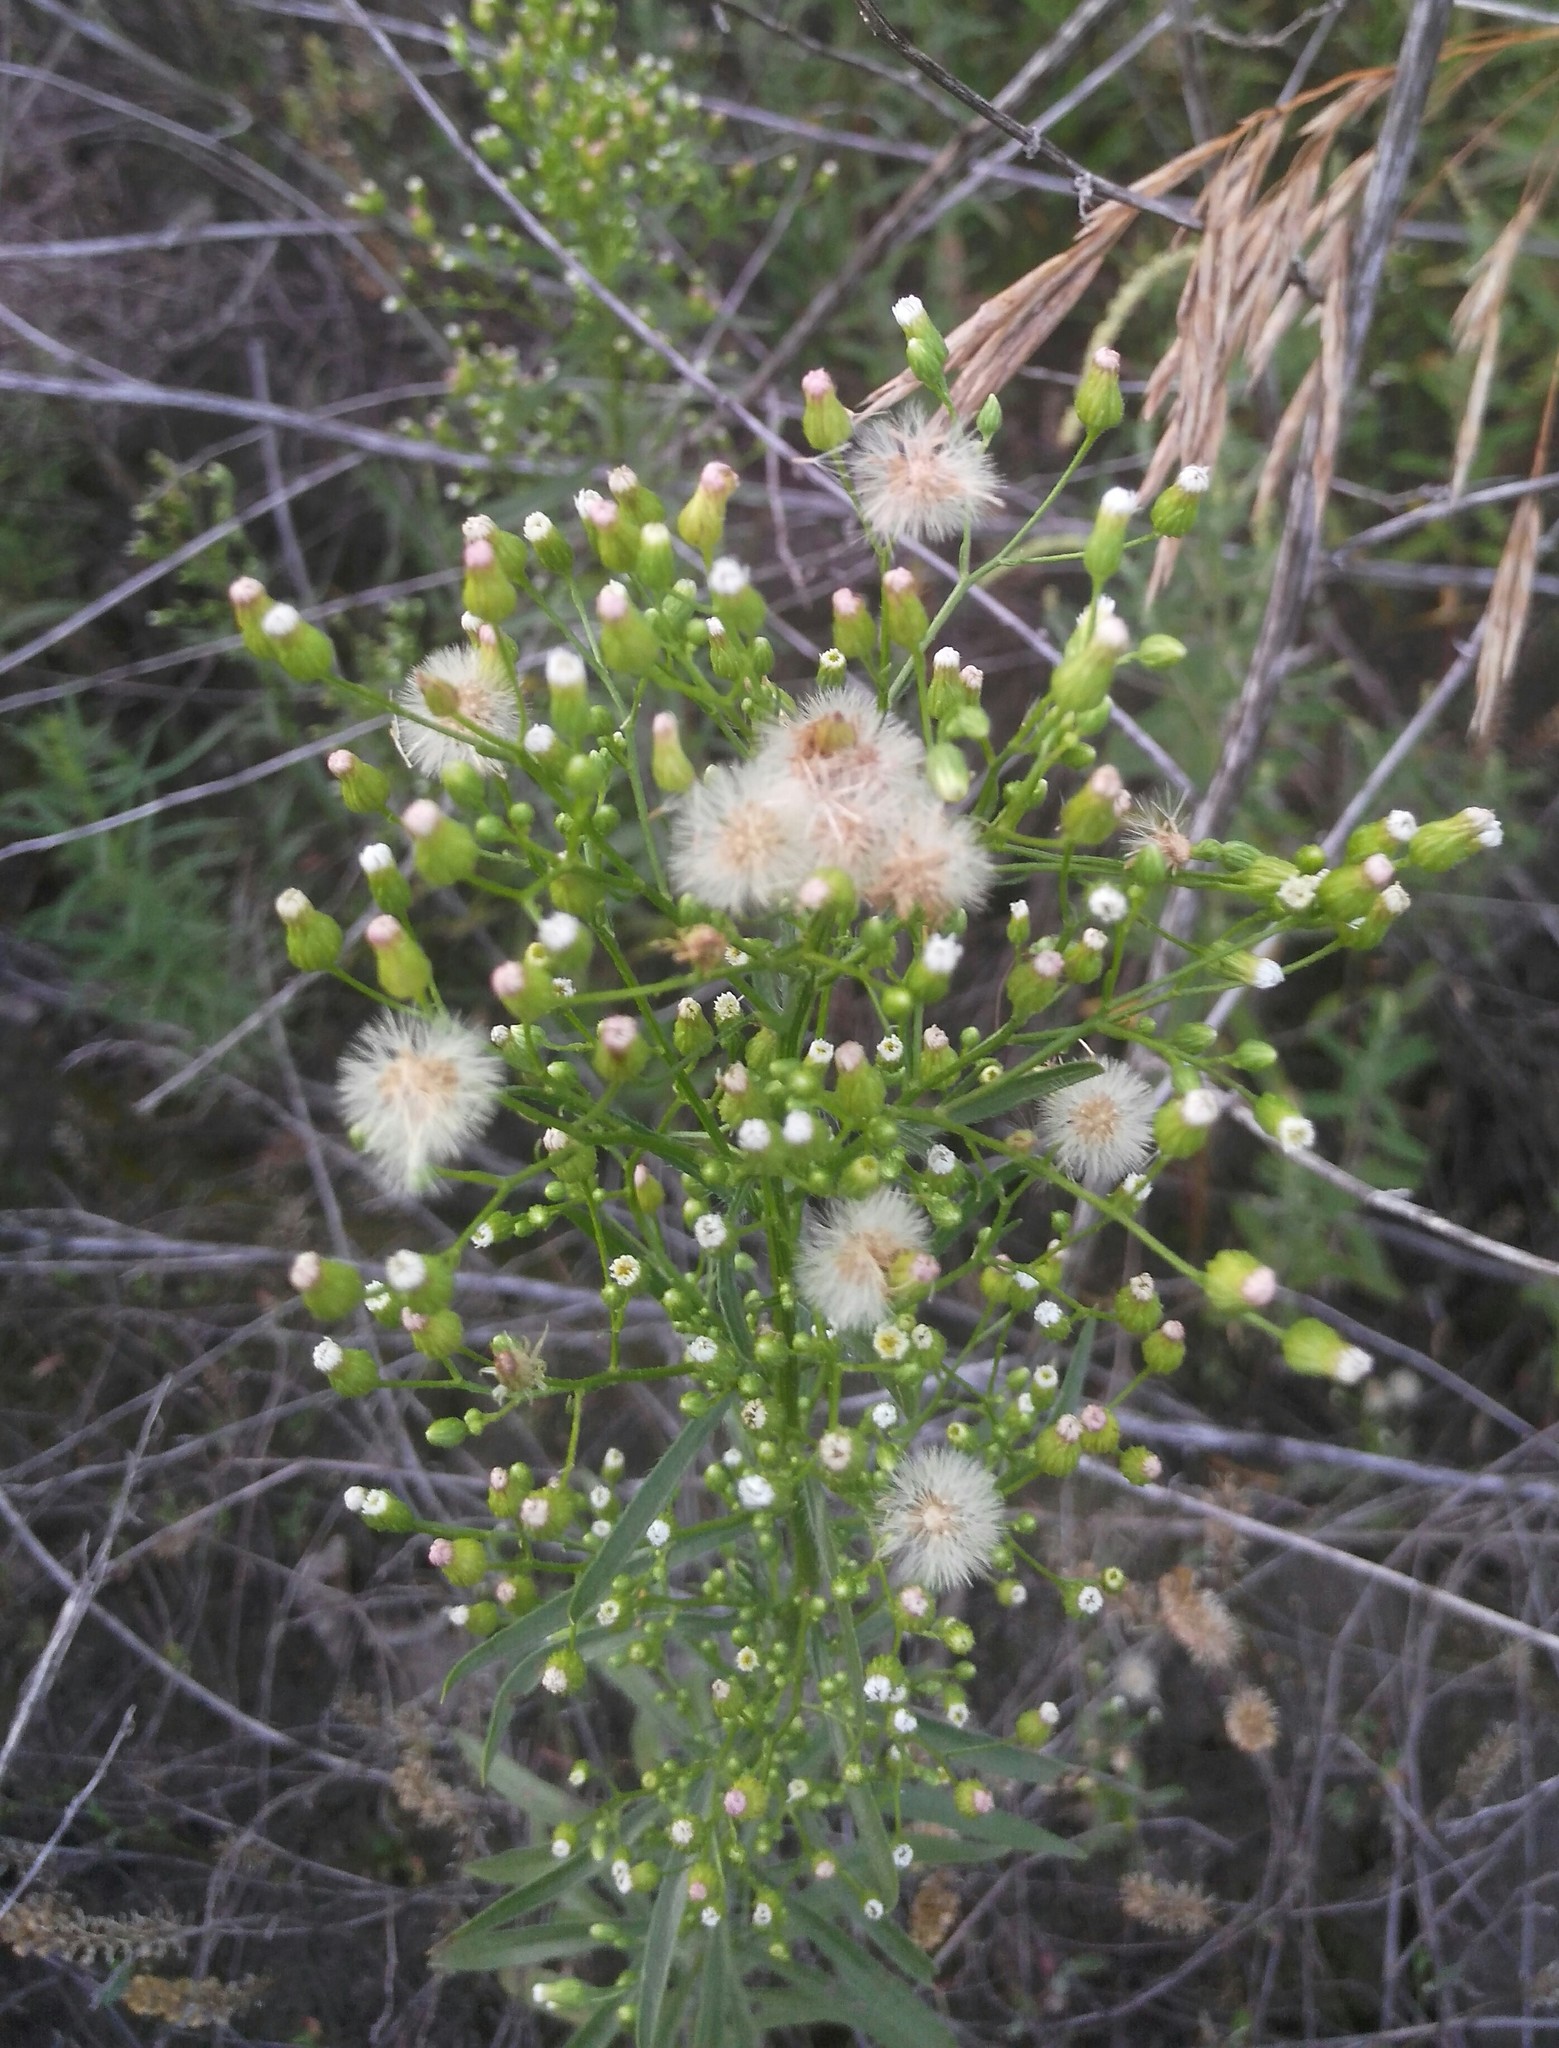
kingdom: Plantae
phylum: Tracheophyta
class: Magnoliopsida
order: Asterales
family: Asteraceae
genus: Erigeron
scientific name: Erigeron canadensis
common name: Canadian fleabane
